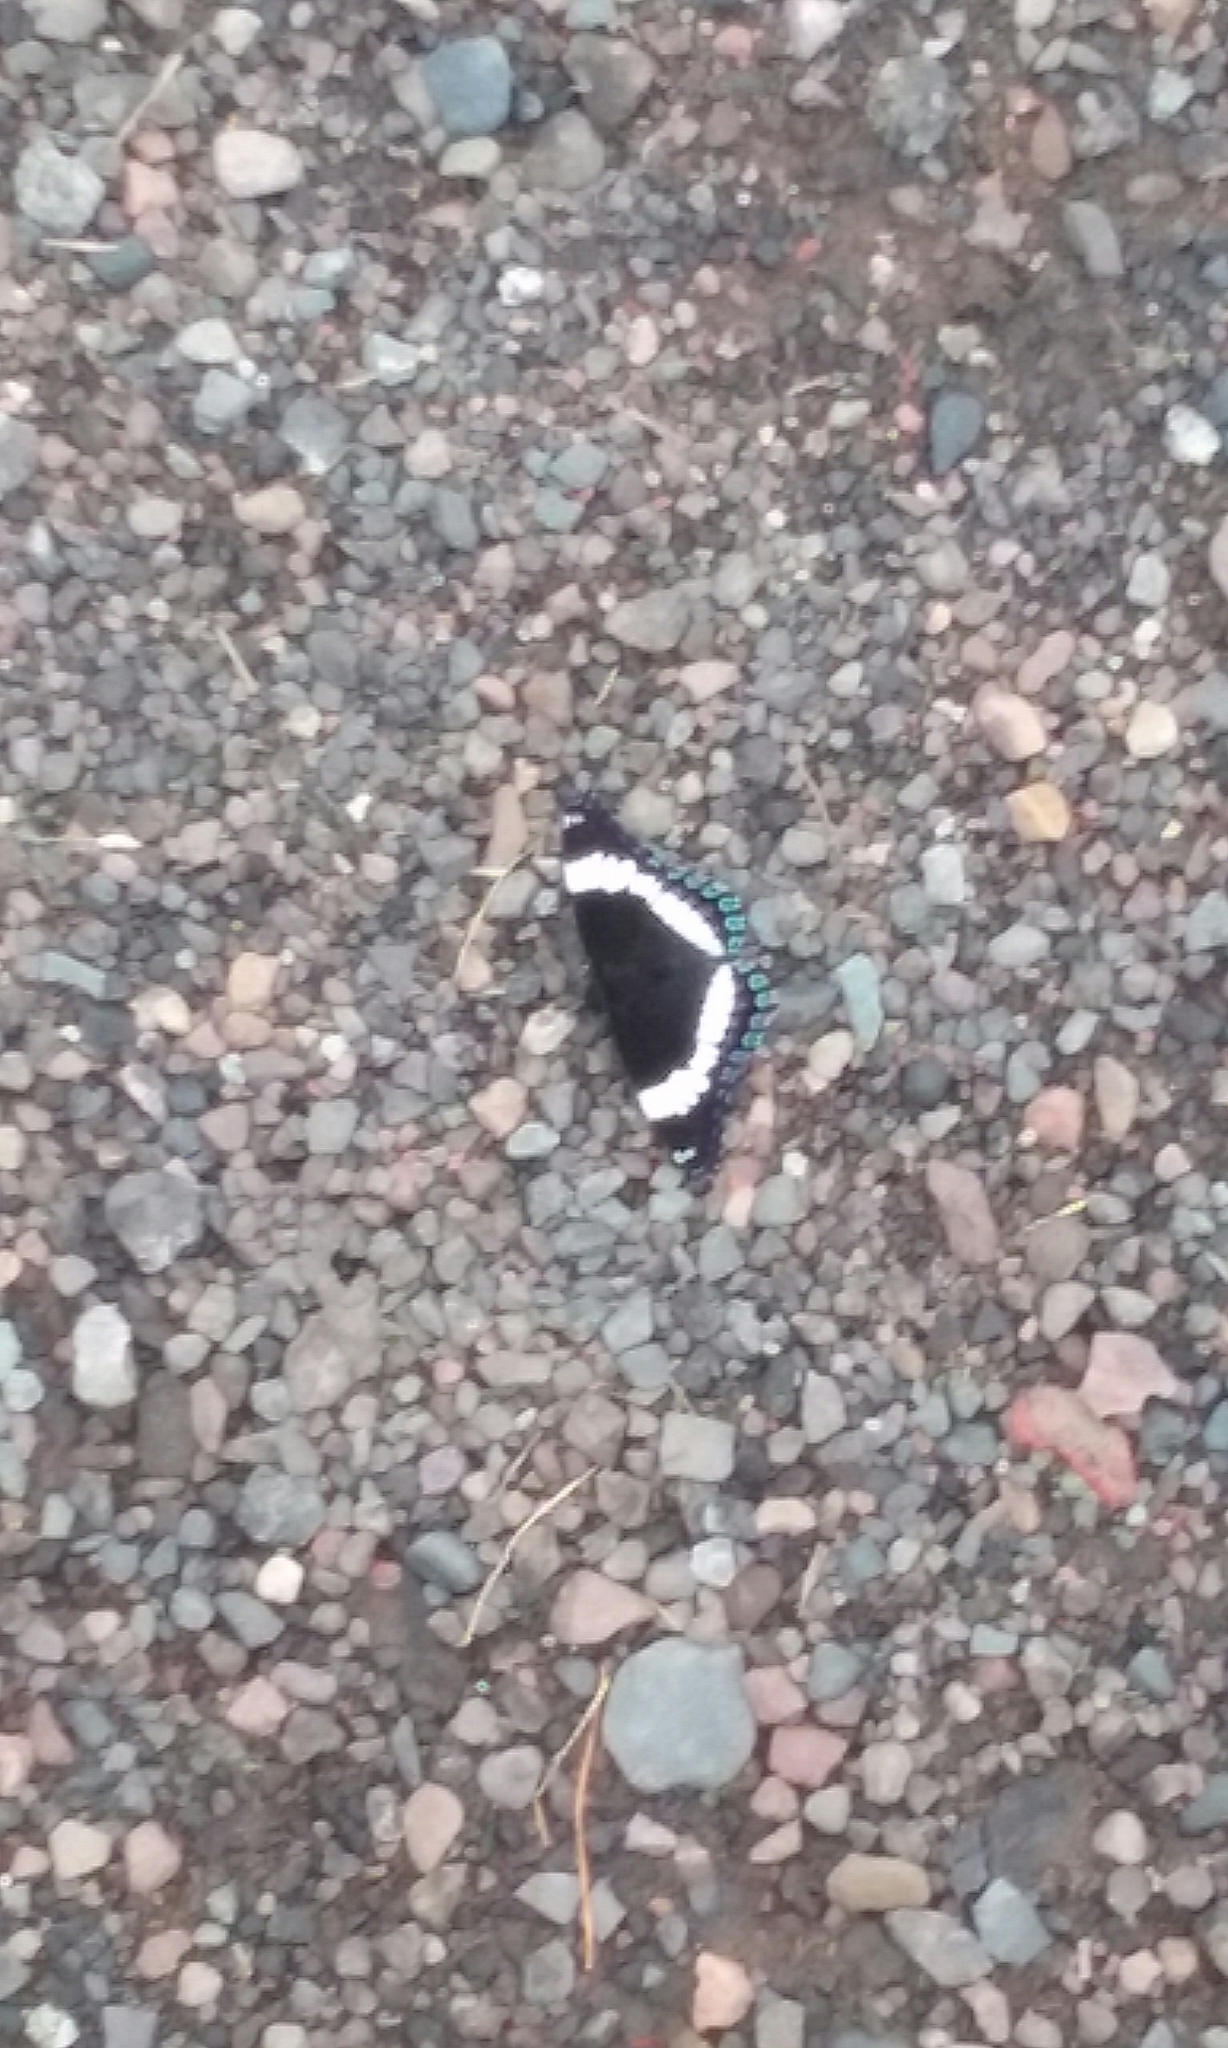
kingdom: Animalia
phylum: Arthropoda
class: Insecta
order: Lepidoptera
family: Nymphalidae
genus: Limenitis
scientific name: Limenitis arthemis
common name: Red-spotted admiral
